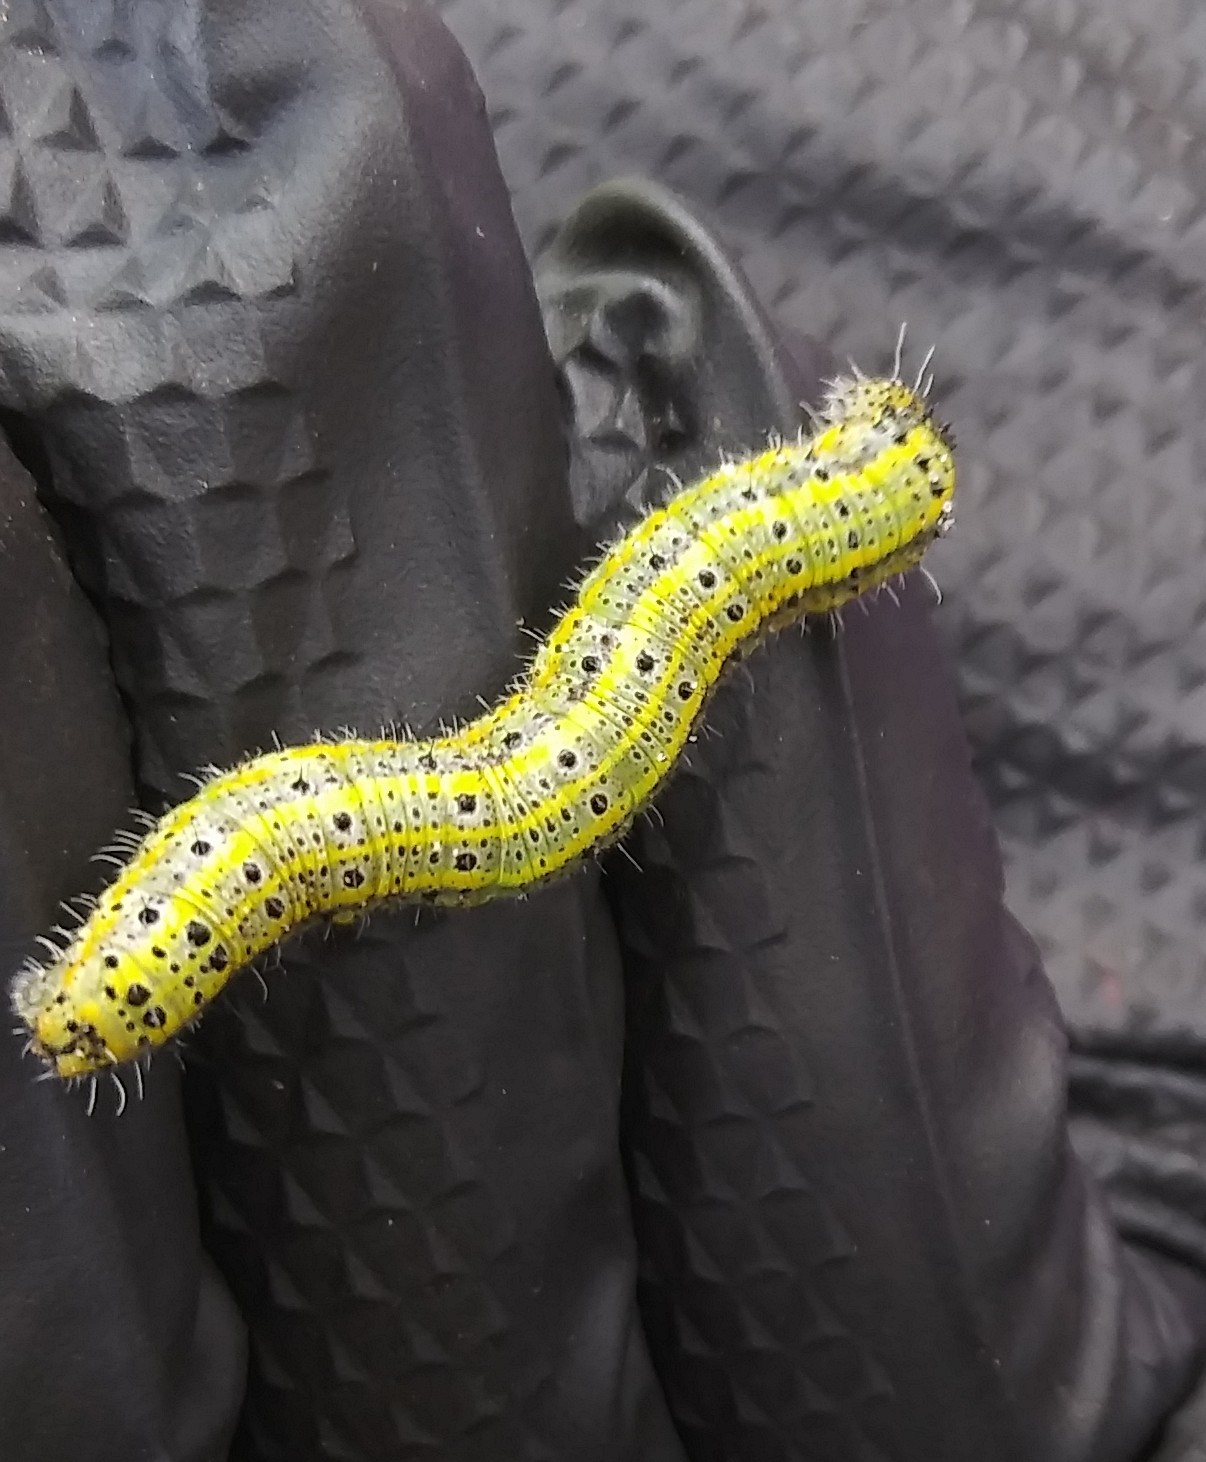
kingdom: Animalia
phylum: Arthropoda
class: Insecta
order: Lepidoptera
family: Pieridae
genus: Ascia
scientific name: Ascia monuste
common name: Great southern white
